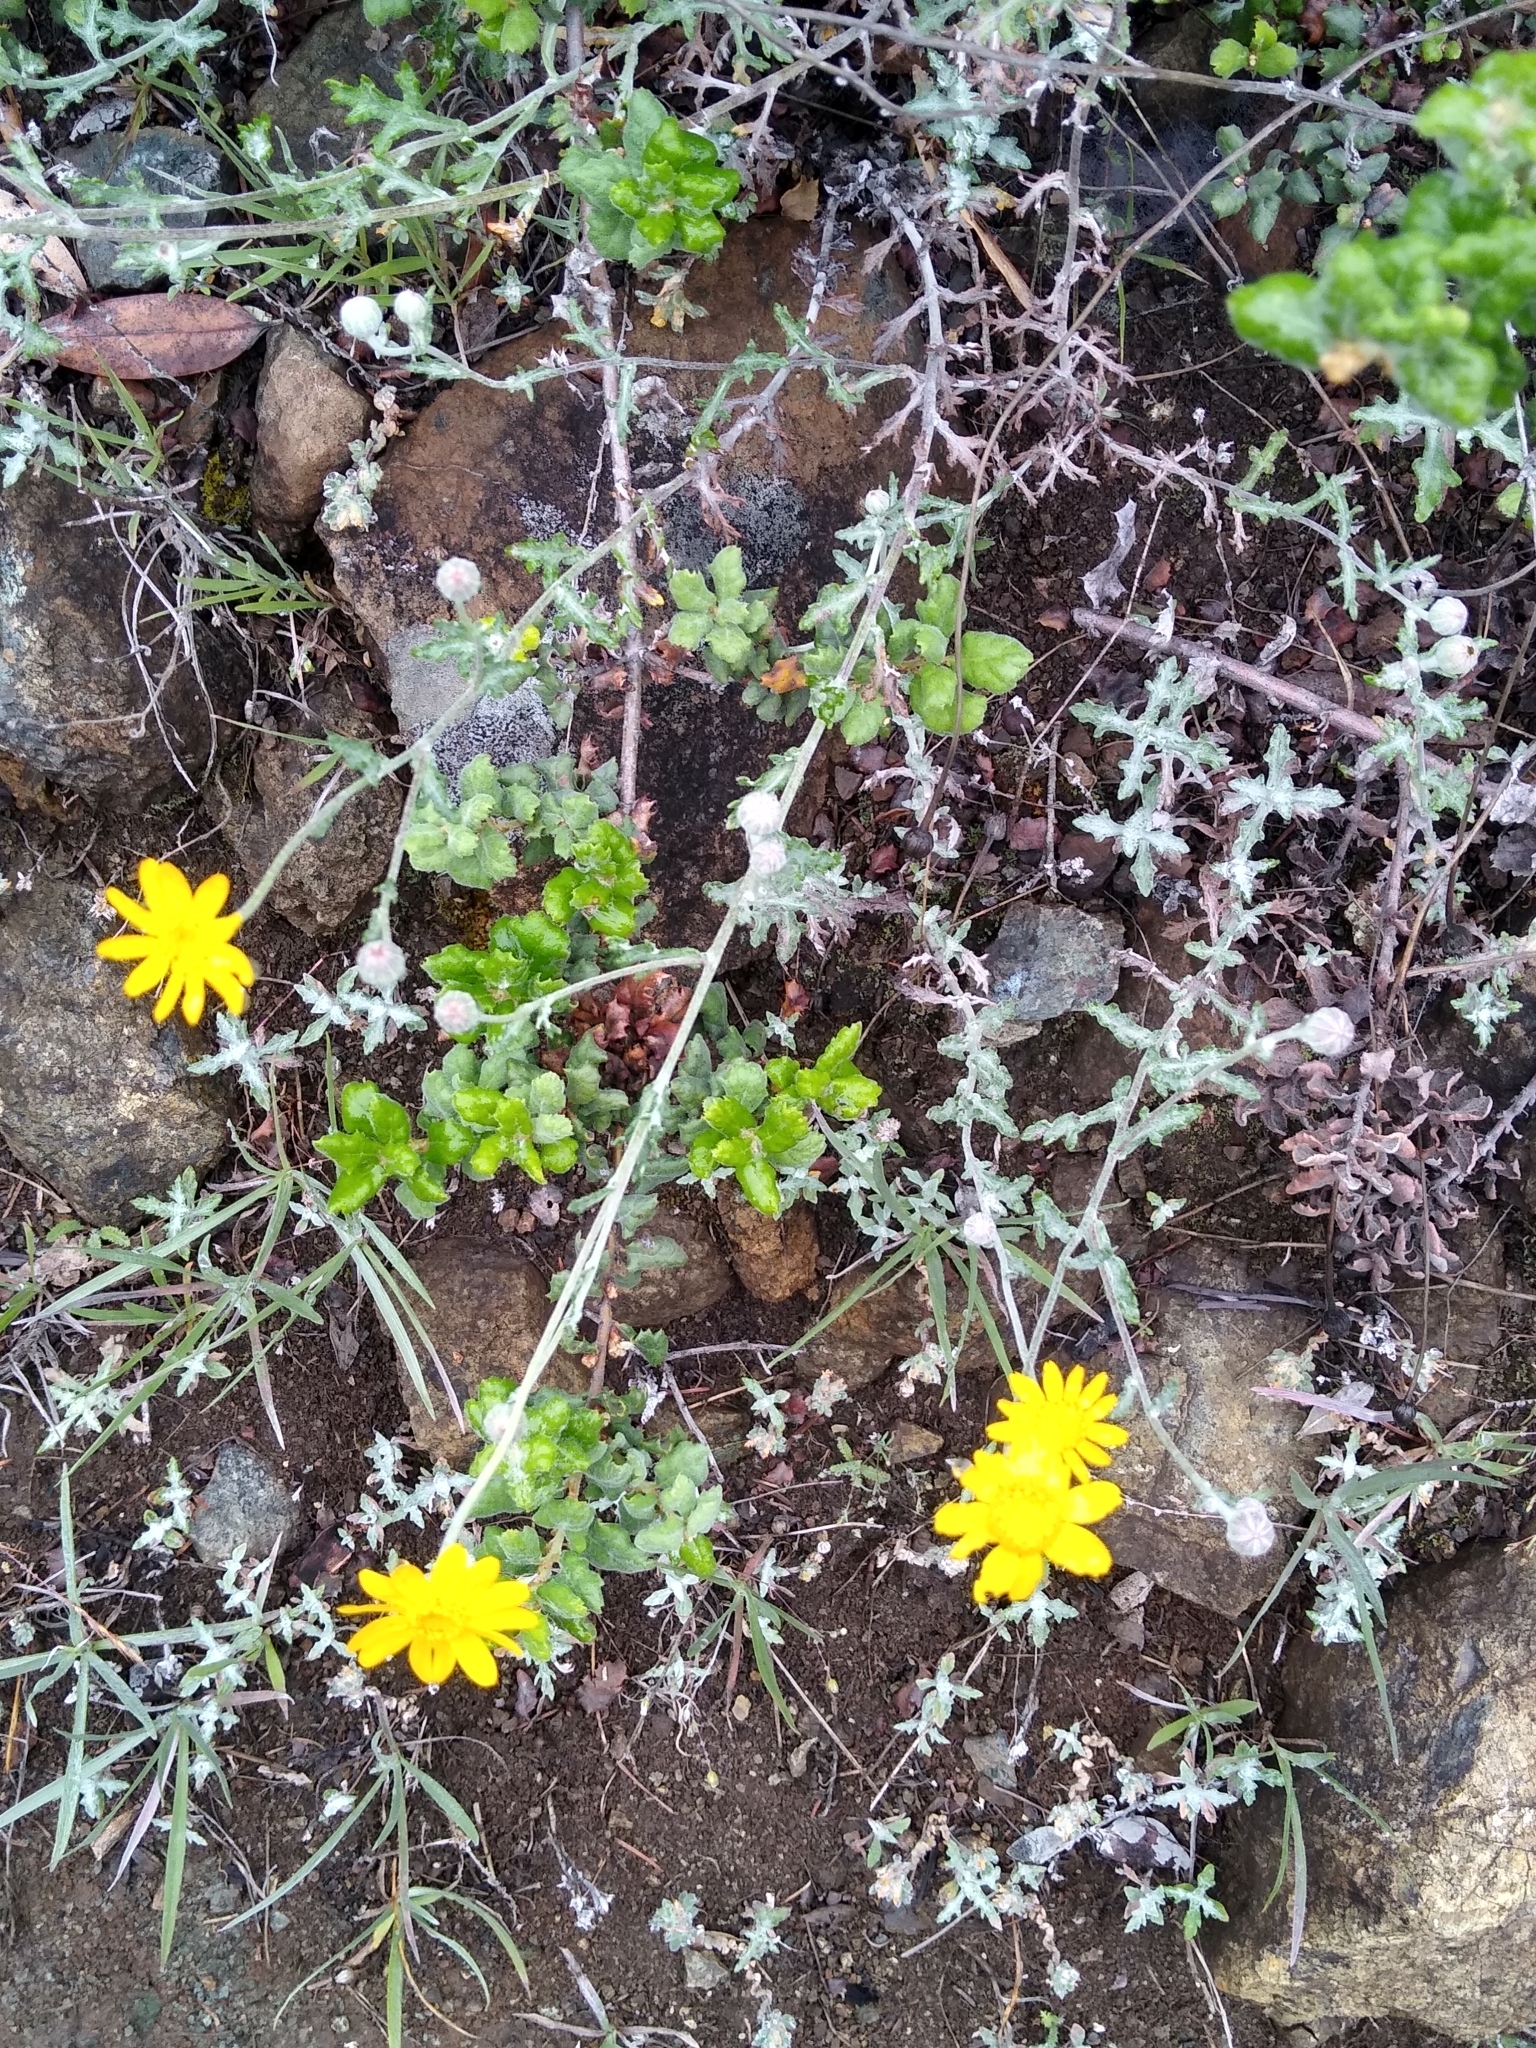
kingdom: Plantae
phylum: Tracheophyta
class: Magnoliopsida
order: Asterales
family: Asteraceae
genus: Eriophyllum
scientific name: Eriophyllum lanatum
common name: Common woolly-sunflower
